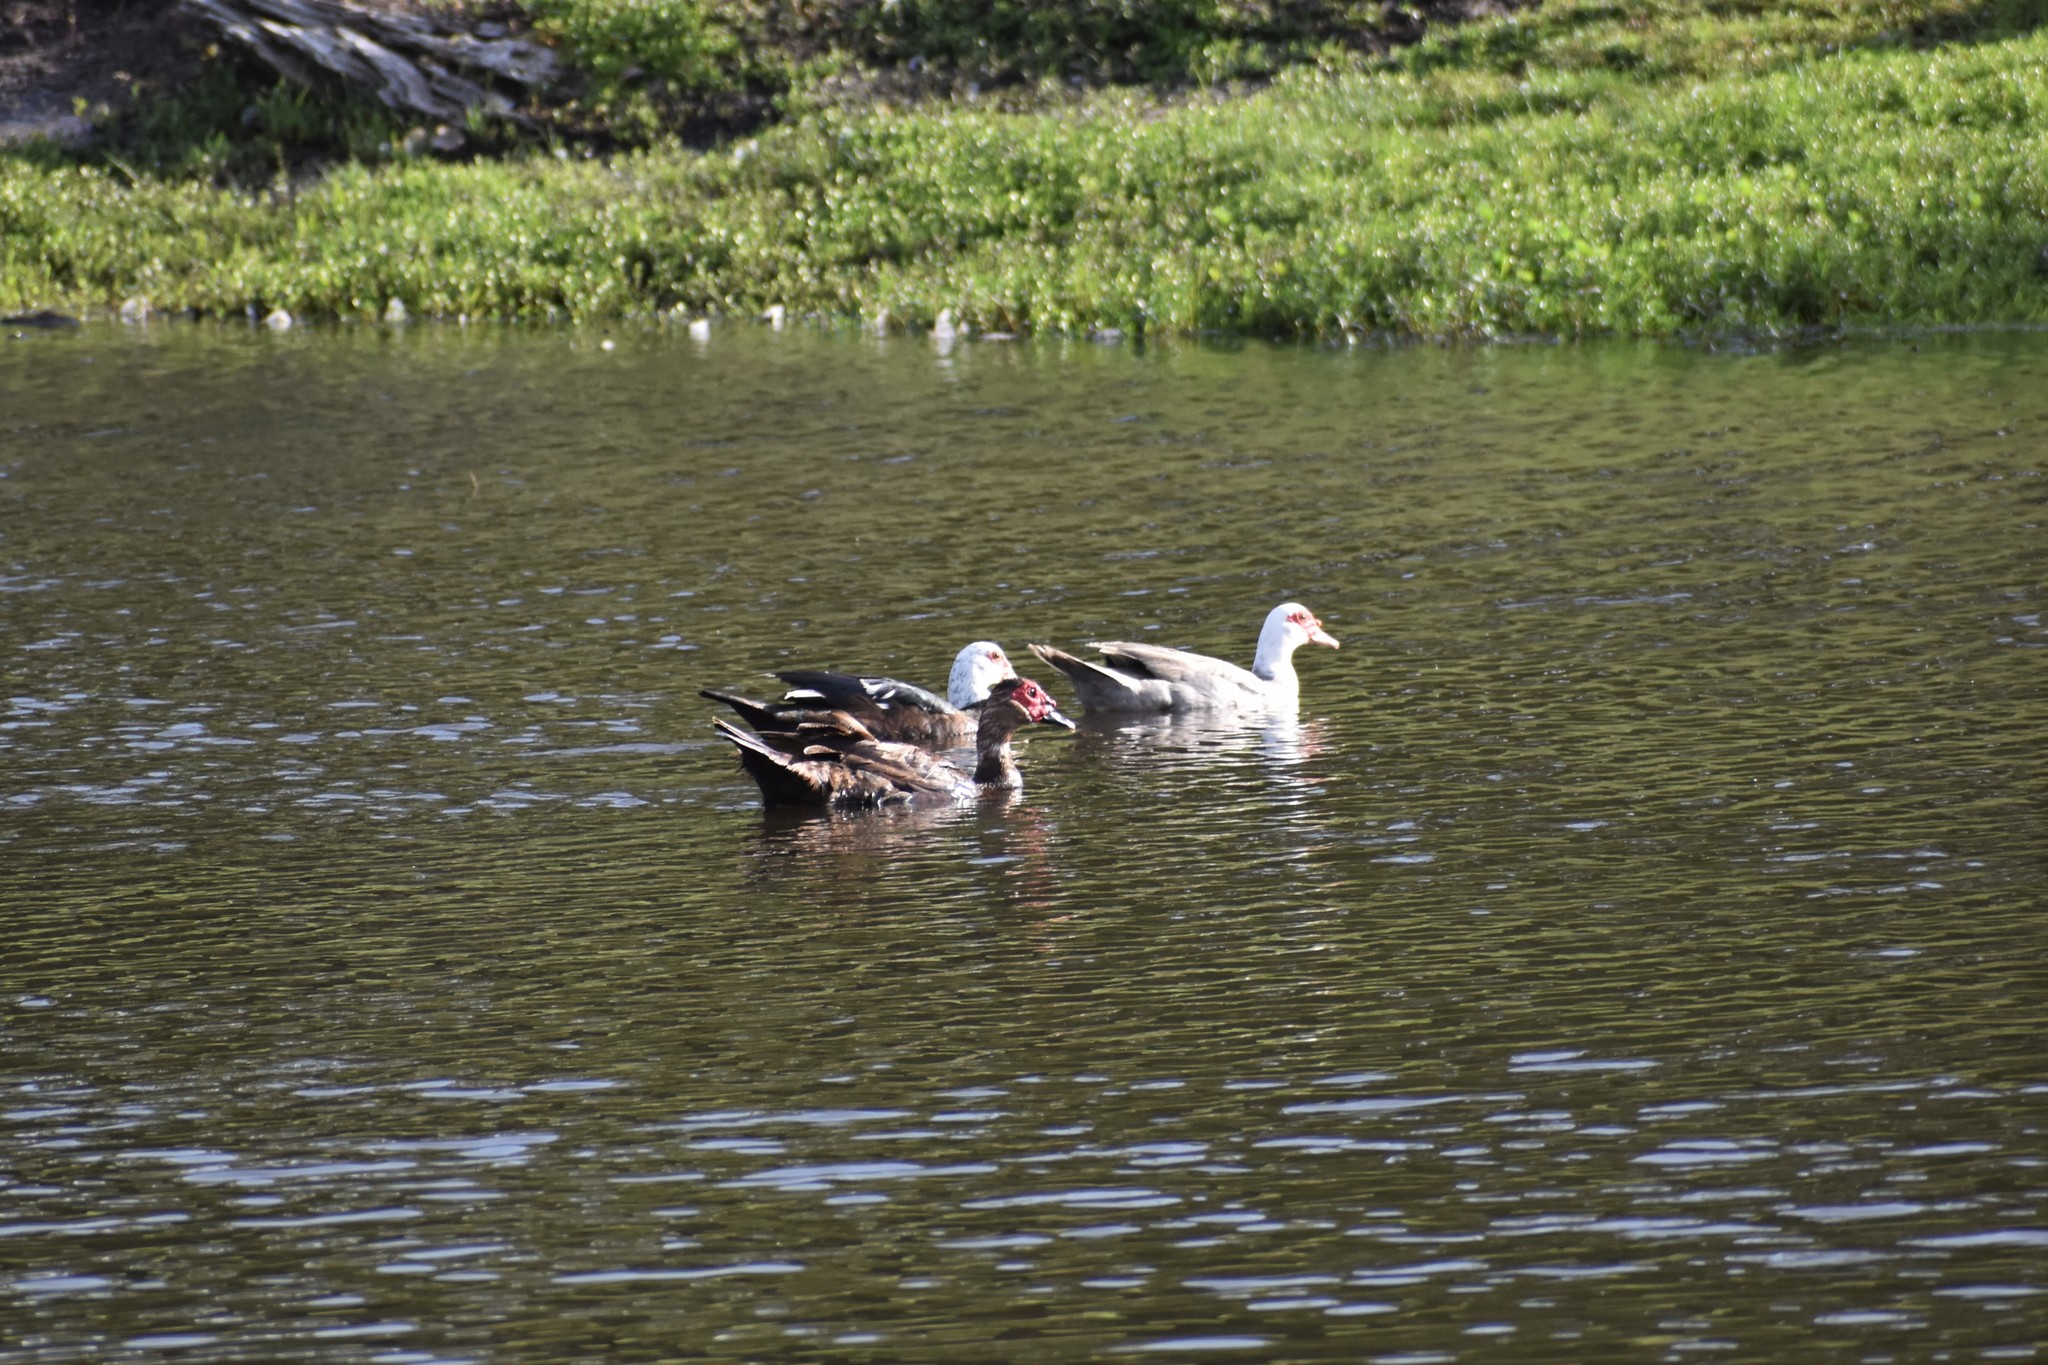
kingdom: Animalia
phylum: Chordata
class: Aves
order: Anseriformes
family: Anatidae
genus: Cairina
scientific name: Cairina moschata
